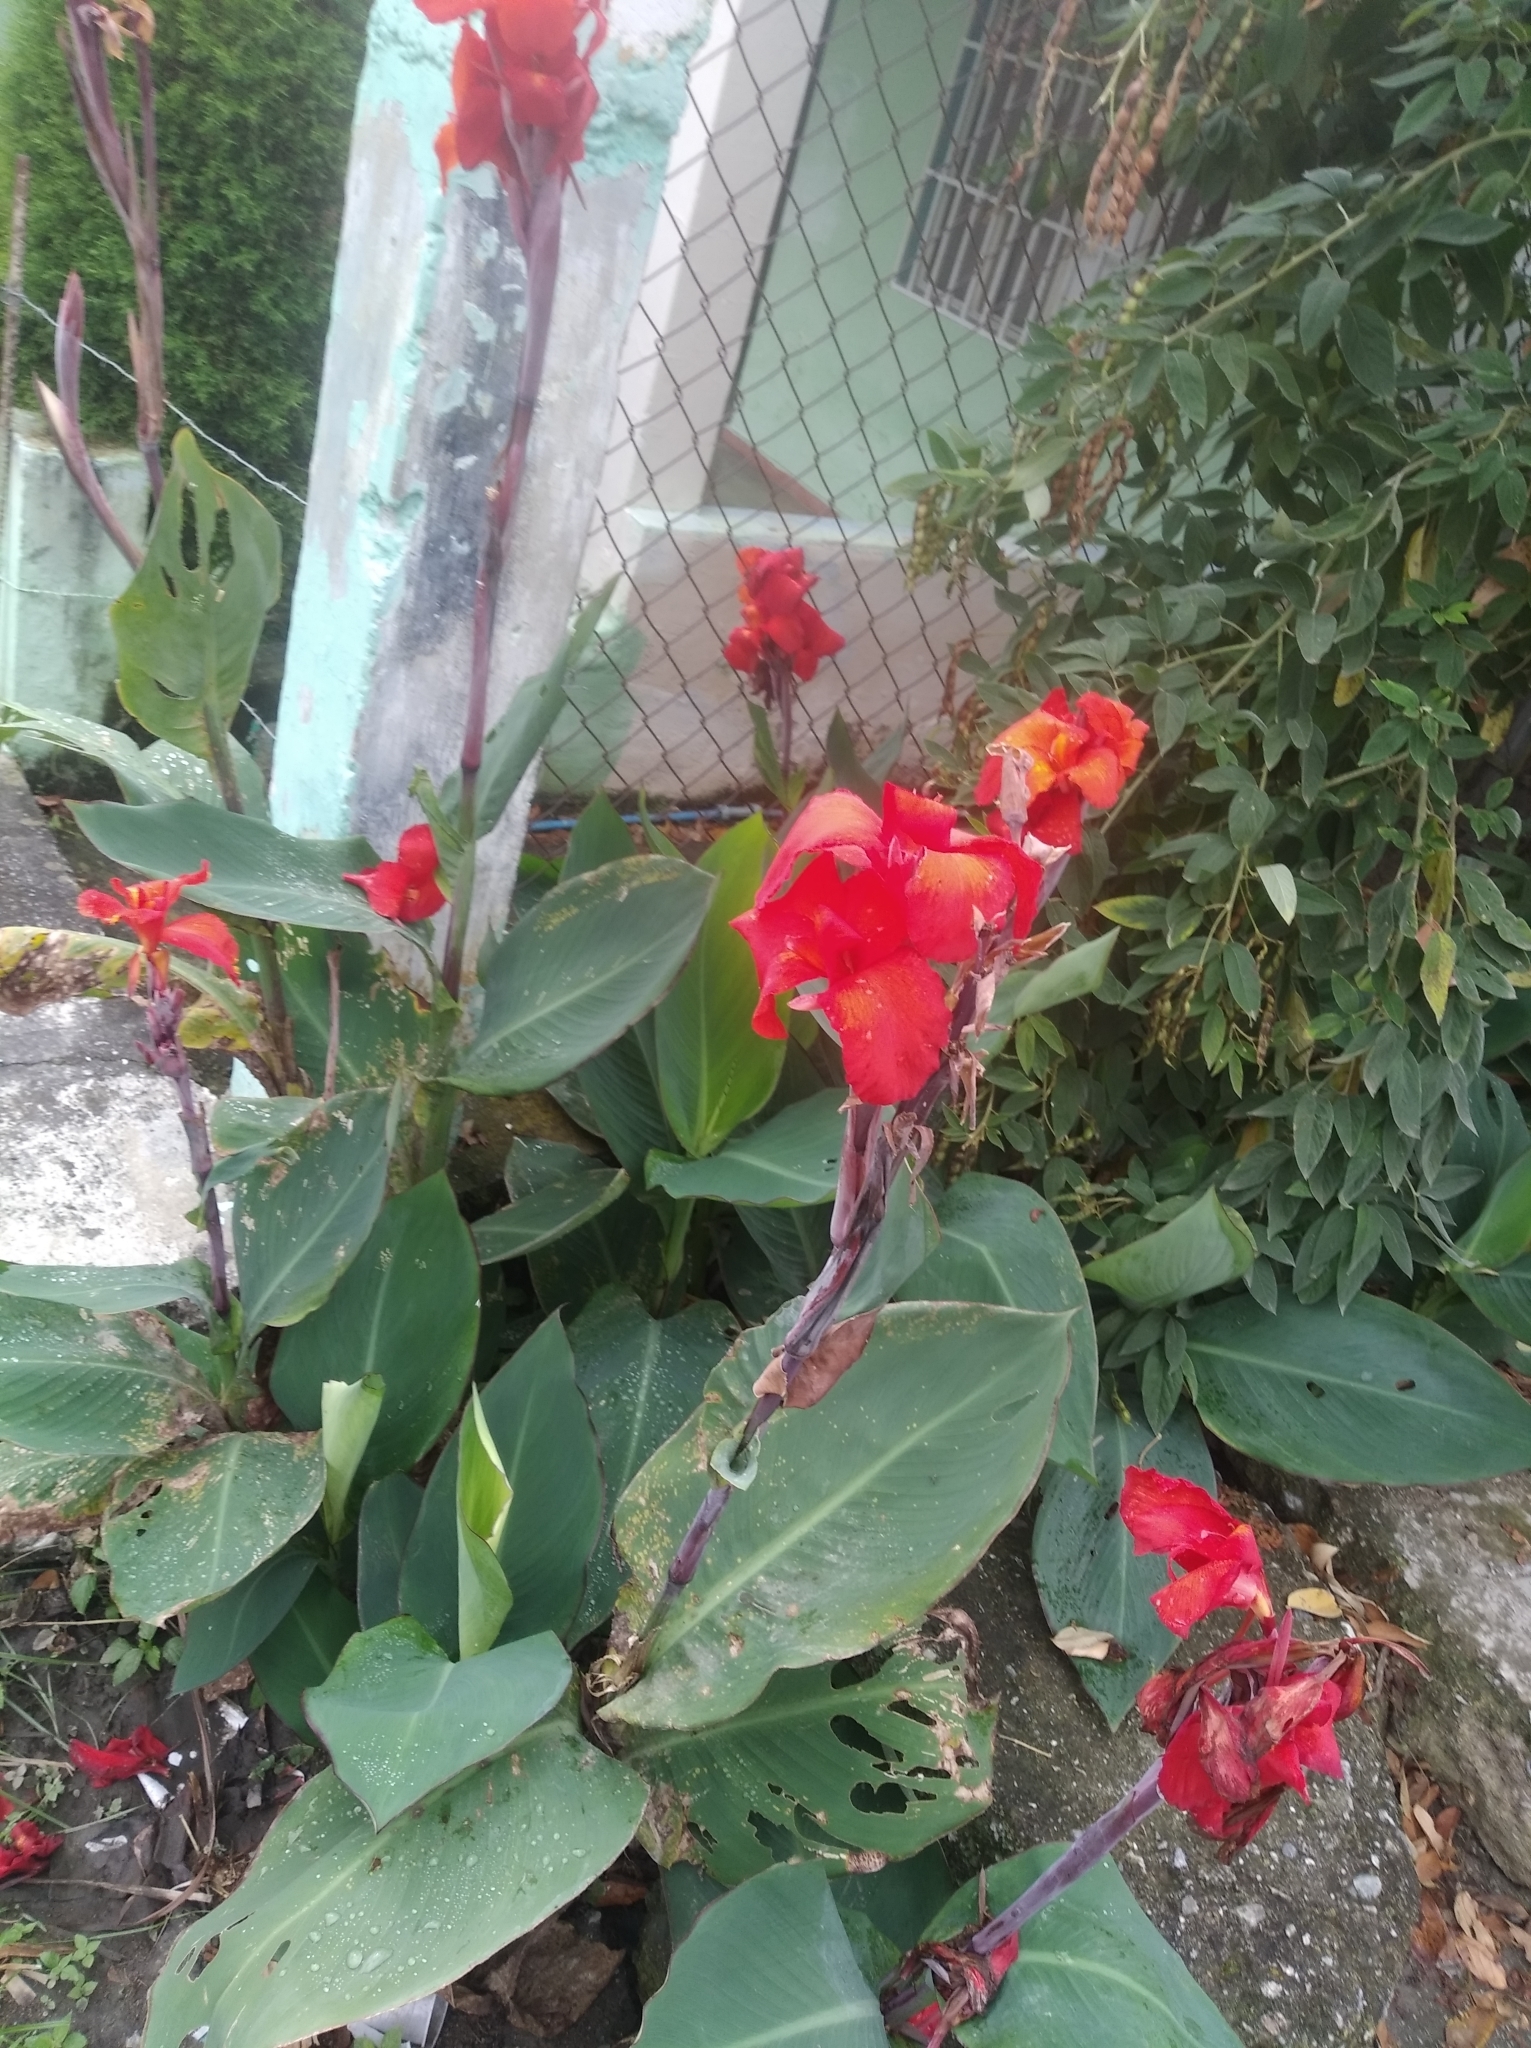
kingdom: Plantae
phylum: Tracheophyta
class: Liliopsida
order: Zingiberales
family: Cannaceae
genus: Canna
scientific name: Canna hybrida
